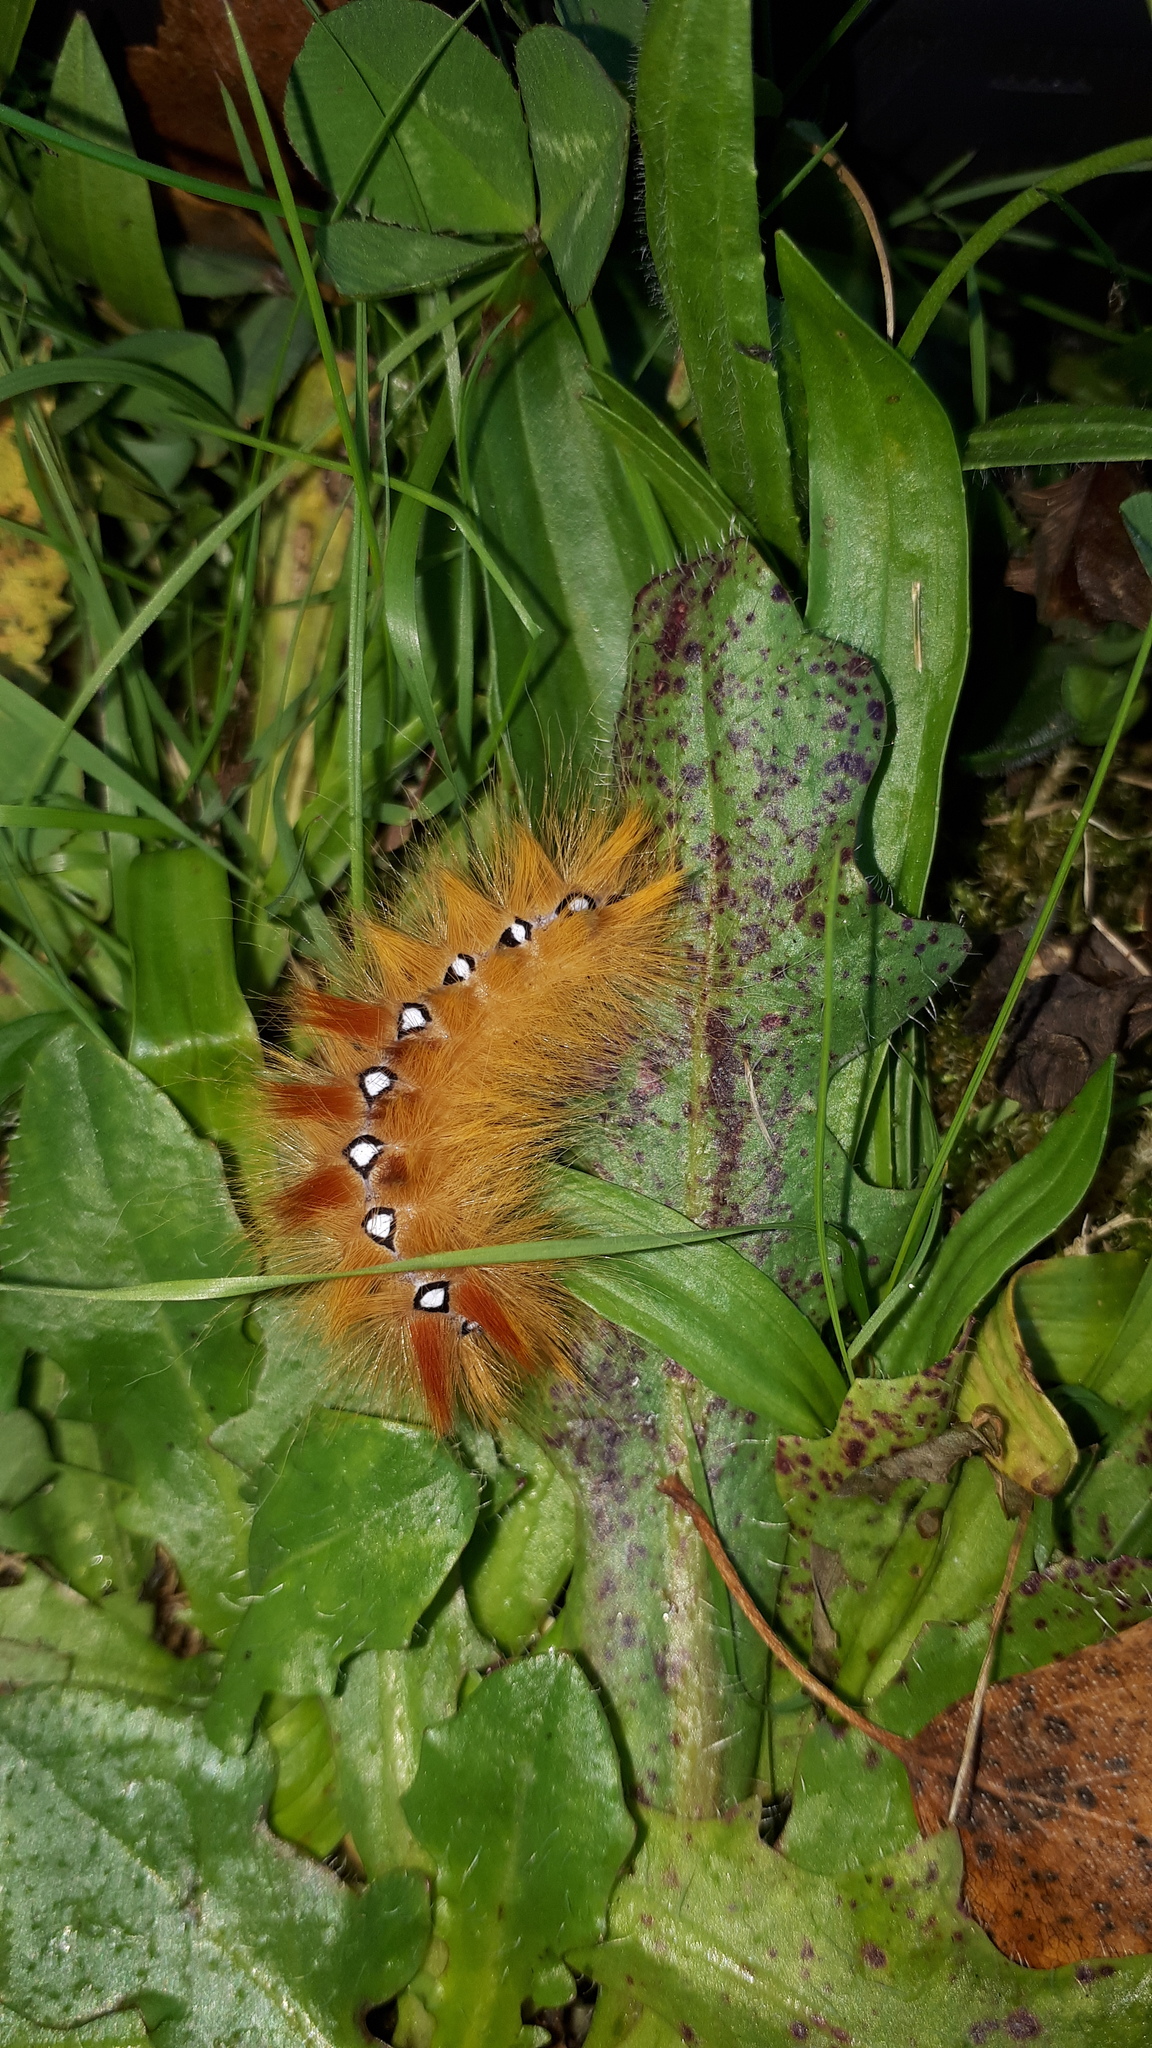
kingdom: Animalia
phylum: Arthropoda
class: Insecta
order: Lepidoptera
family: Noctuidae
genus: Acronicta
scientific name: Acronicta aceris
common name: Sycamore
